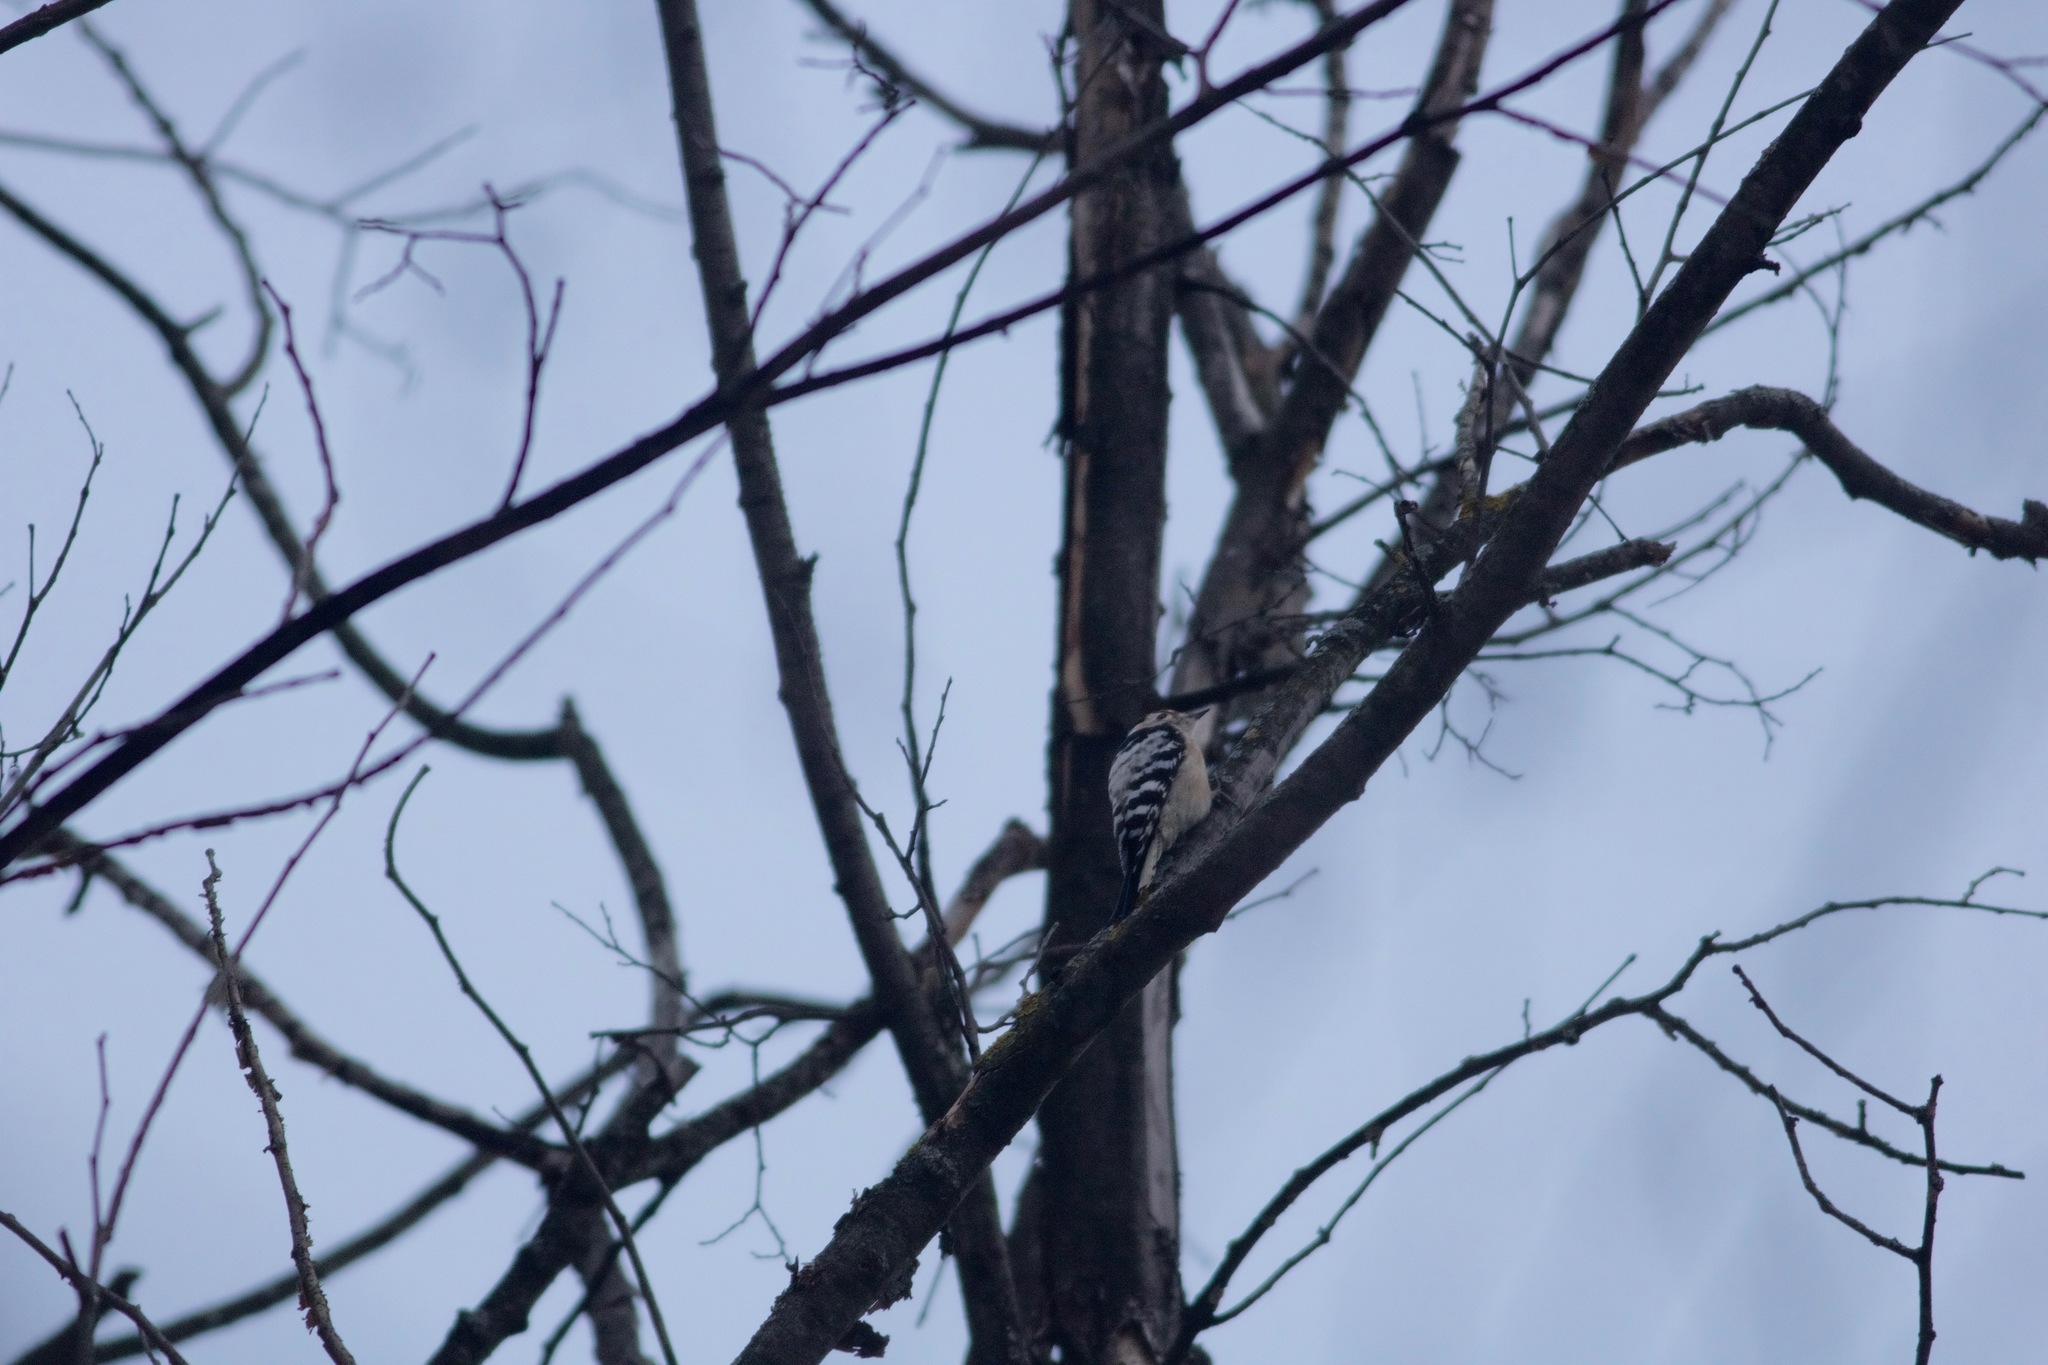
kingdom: Animalia
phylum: Chordata
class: Aves
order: Piciformes
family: Picidae
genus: Dryobates
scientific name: Dryobates minor
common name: Lesser spotted woodpecker
